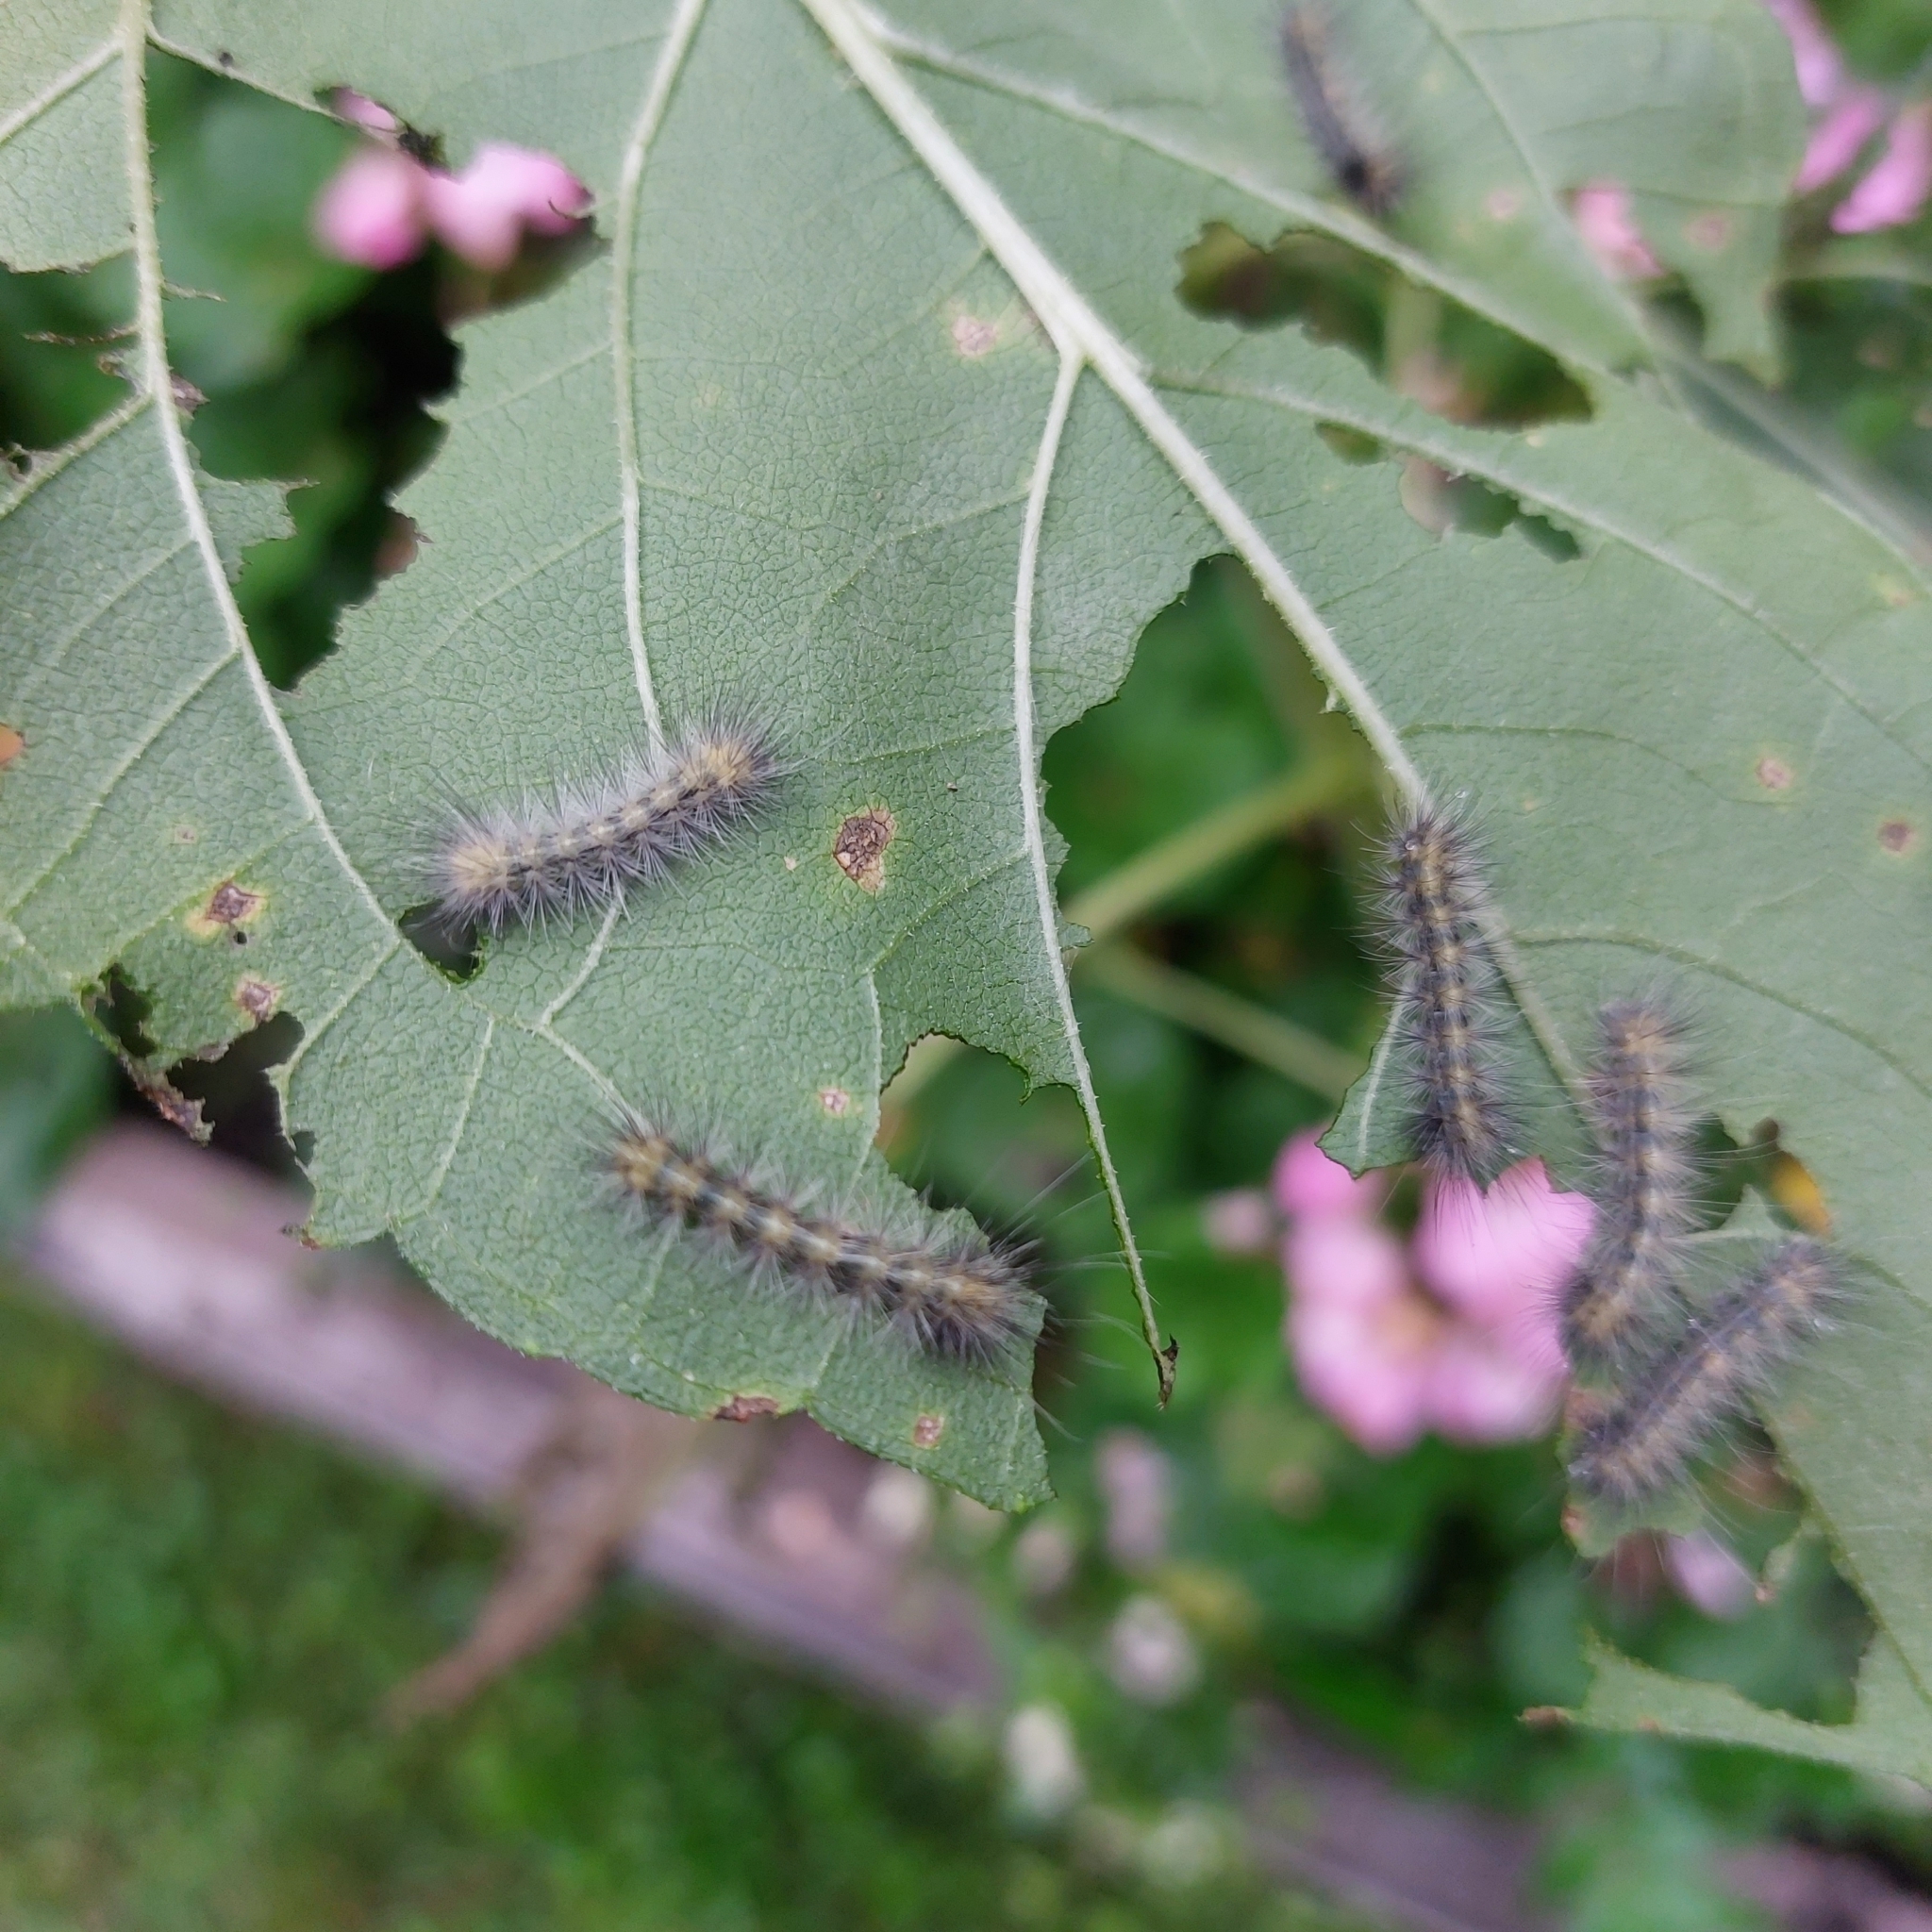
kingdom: Animalia
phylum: Arthropoda
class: Insecta
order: Lepidoptera
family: Erebidae
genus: Spilosoma
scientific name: Spilosoma virginica
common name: Virginia tiger moth
